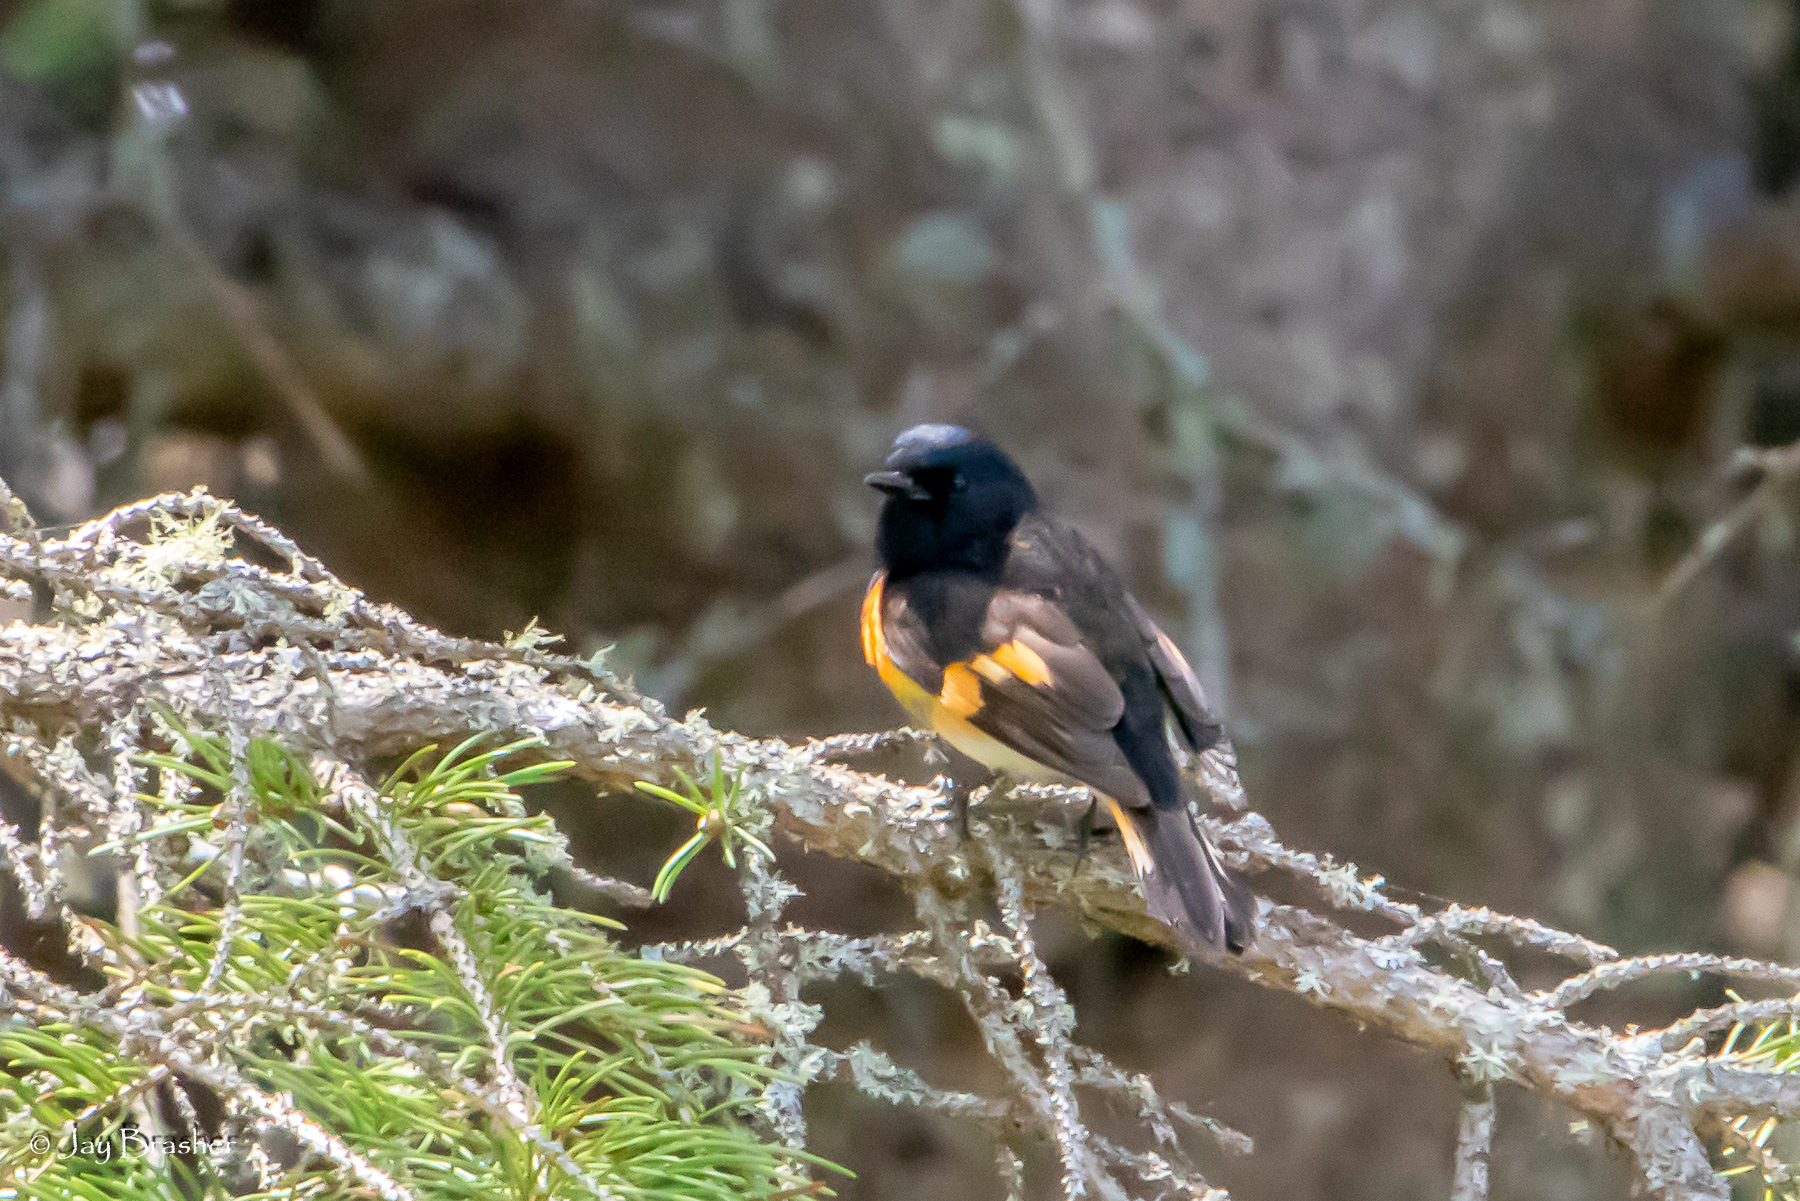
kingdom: Animalia
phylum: Chordata
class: Aves
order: Passeriformes
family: Parulidae
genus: Setophaga
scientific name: Setophaga ruticilla
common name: American redstart
